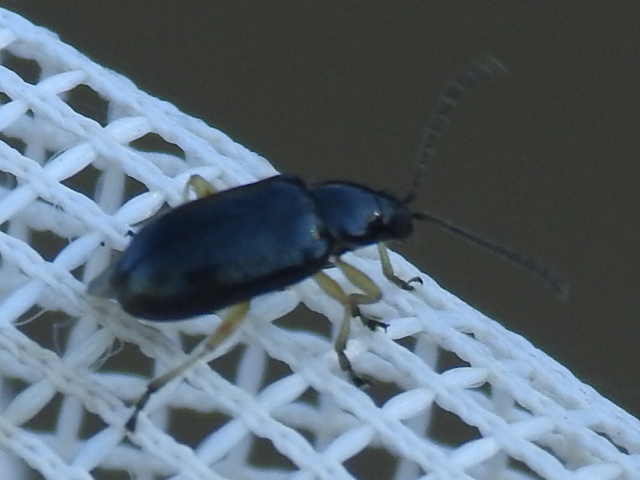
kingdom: Animalia
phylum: Arthropoda
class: Insecta
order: Coleoptera
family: Chrysomelidae
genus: Lysathia
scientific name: Lysathia ludoviciana
